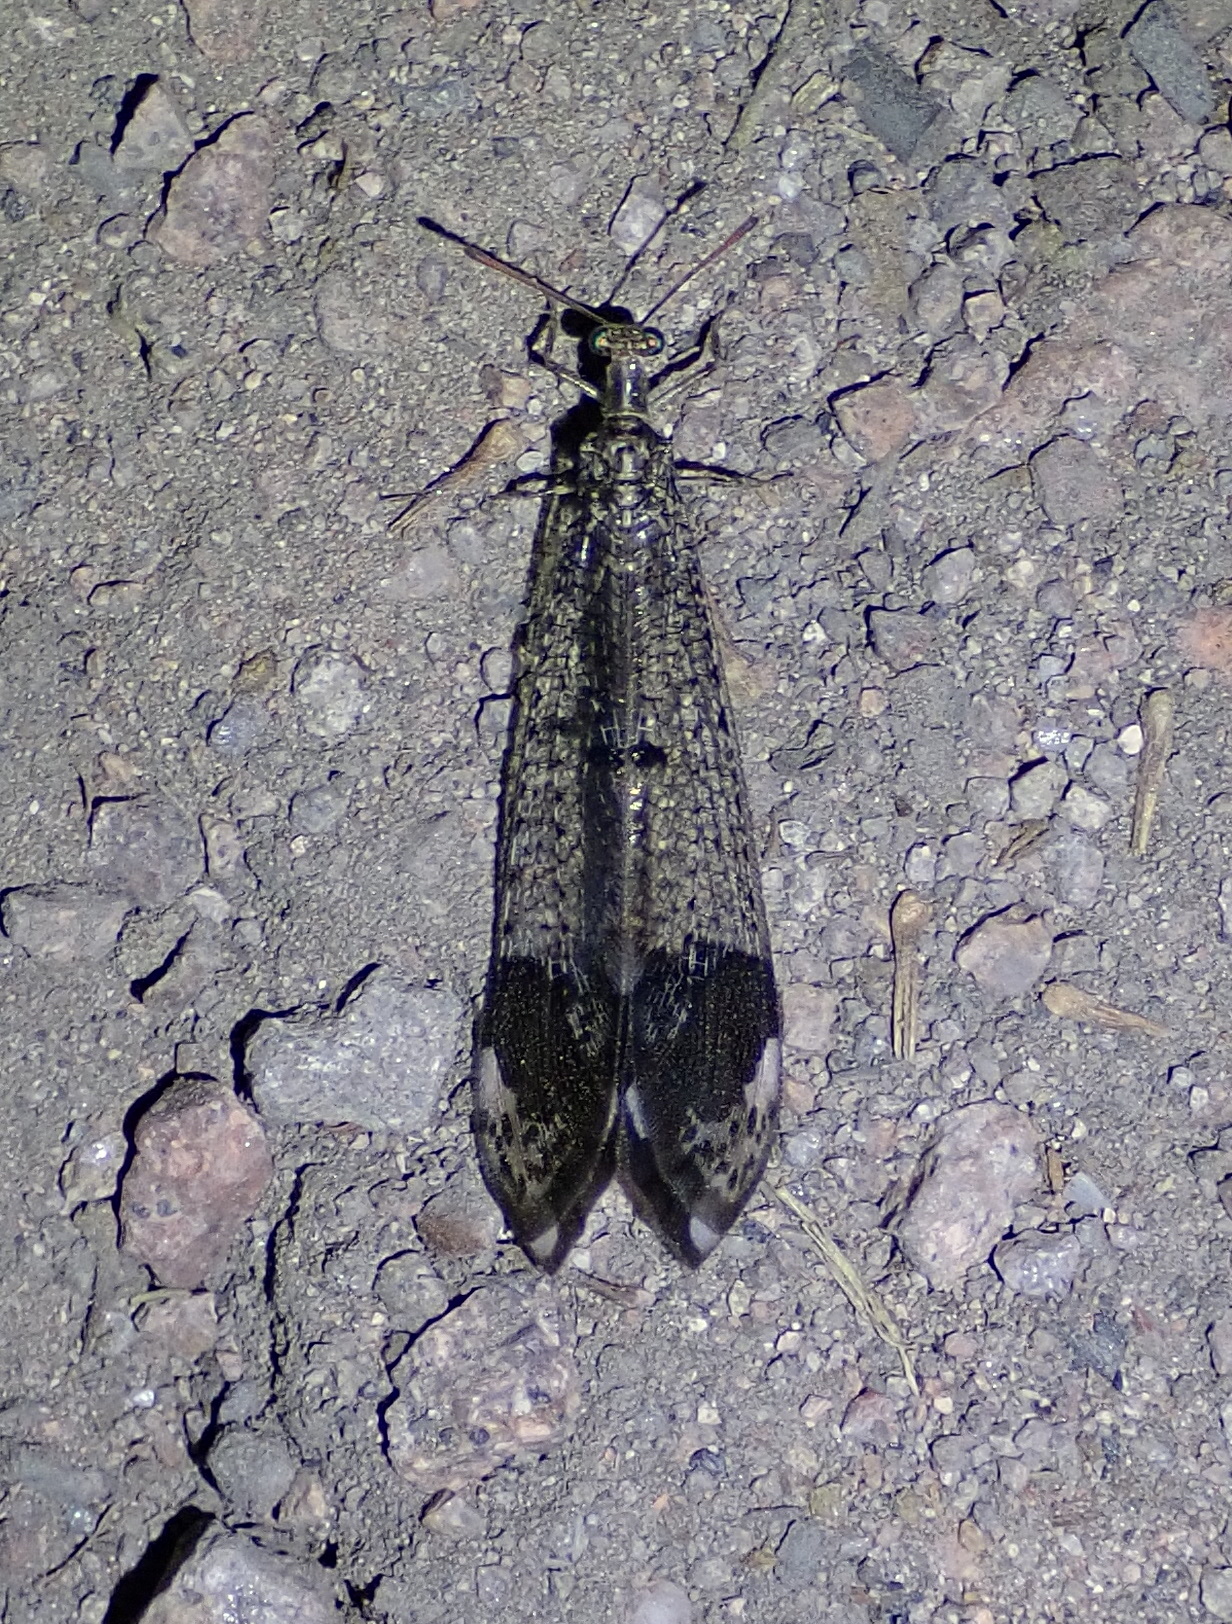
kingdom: Animalia
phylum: Arthropoda
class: Insecta
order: Neuroptera
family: Myrmeleontidae
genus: Glenurus
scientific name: Glenurus luniger
